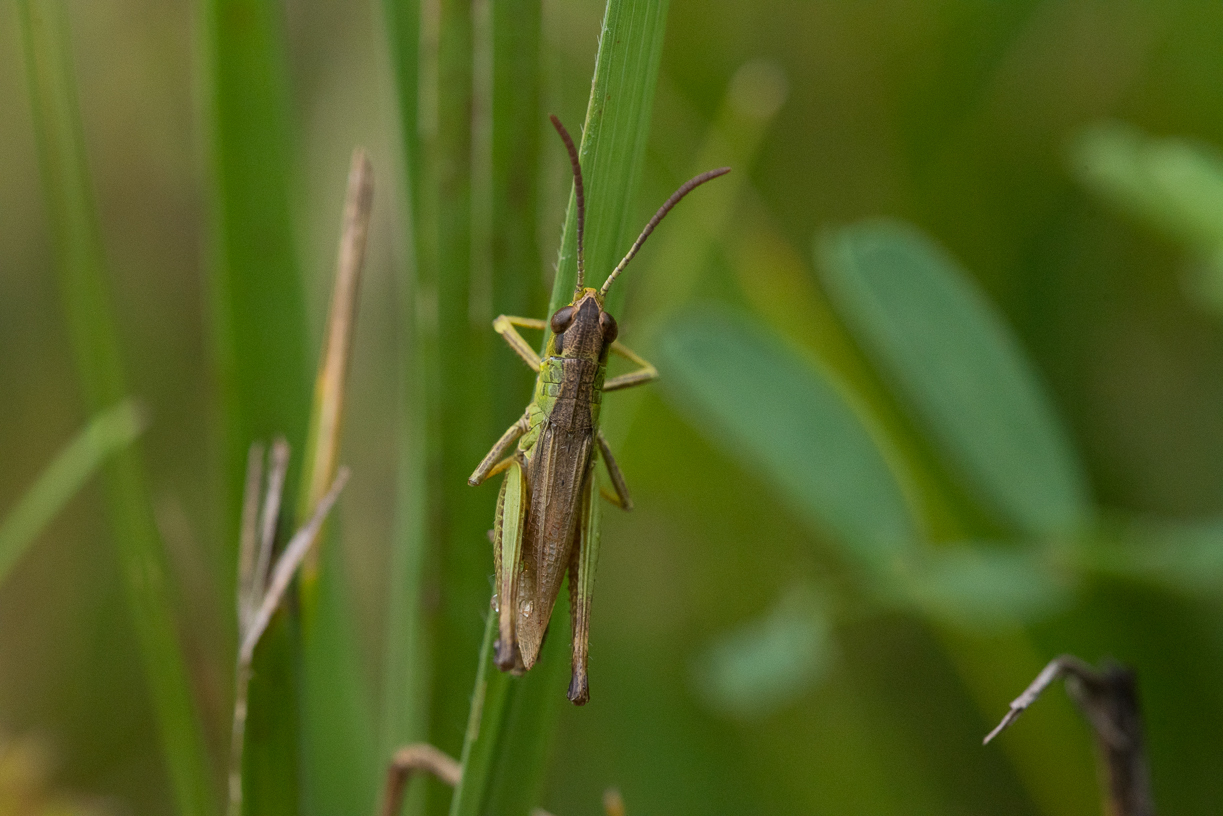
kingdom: Animalia
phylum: Arthropoda
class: Insecta
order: Orthoptera
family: Acrididae
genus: Pseudochorthippus
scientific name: Pseudochorthippus parallelus
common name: Meadow grasshopper
